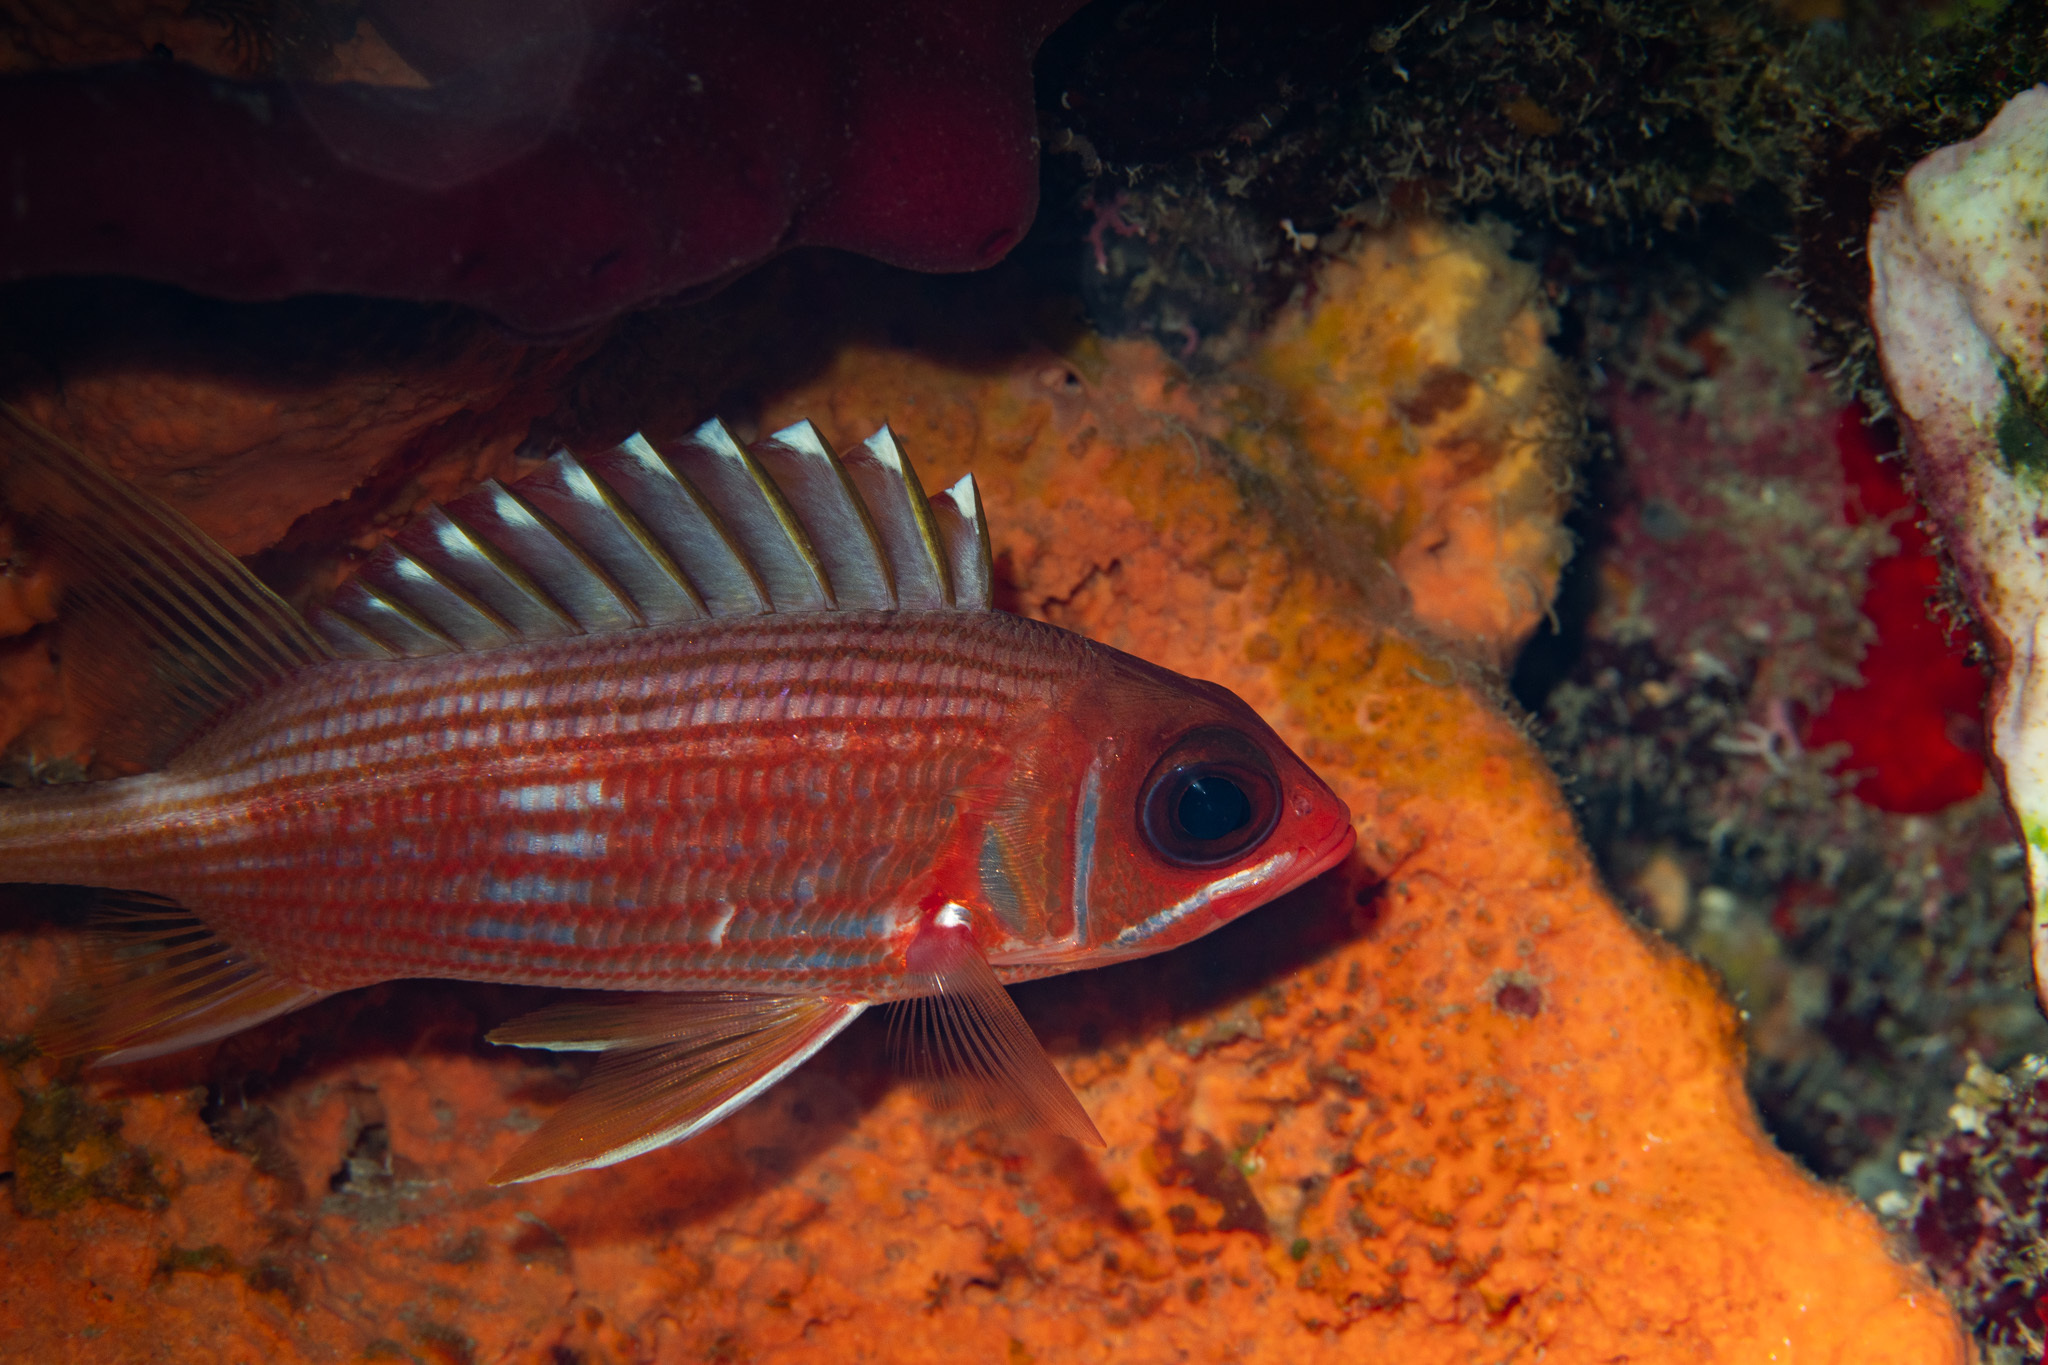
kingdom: Animalia
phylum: Chordata
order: Beryciformes
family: Holocentridae
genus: Holocentrus
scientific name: Holocentrus rufus
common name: Longspine squirrelfish
